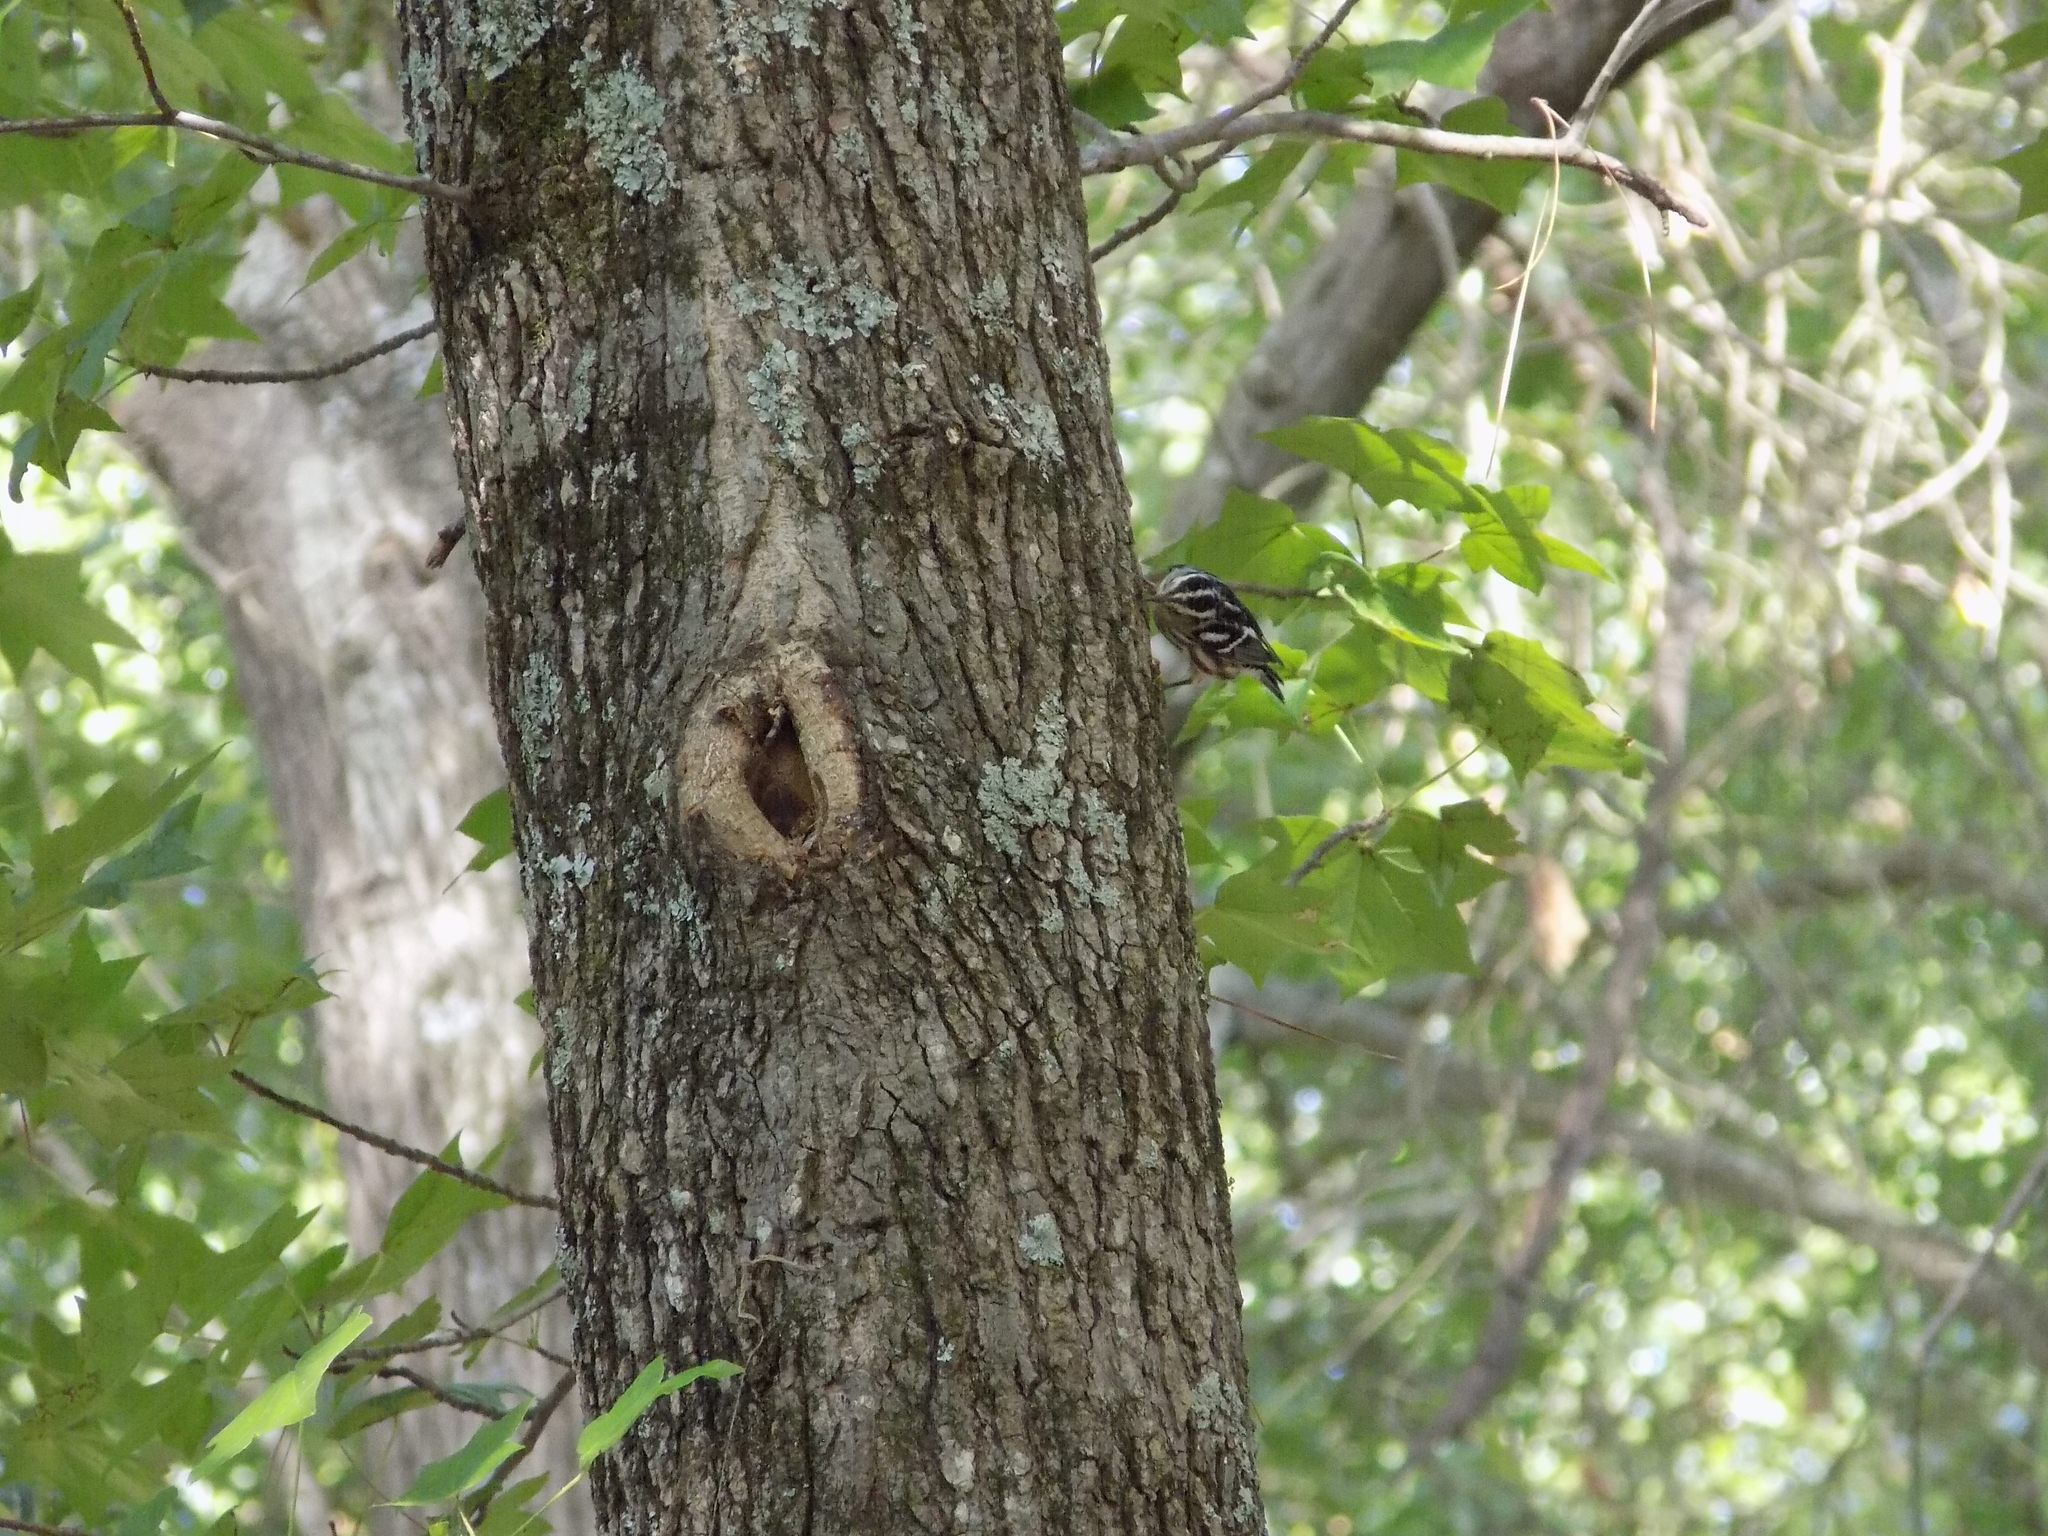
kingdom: Animalia
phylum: Chordata
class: Aves
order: Passeriformes
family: Parulidae
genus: Mniotilta
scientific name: Mniotilta varia
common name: Black-and-white warbler
